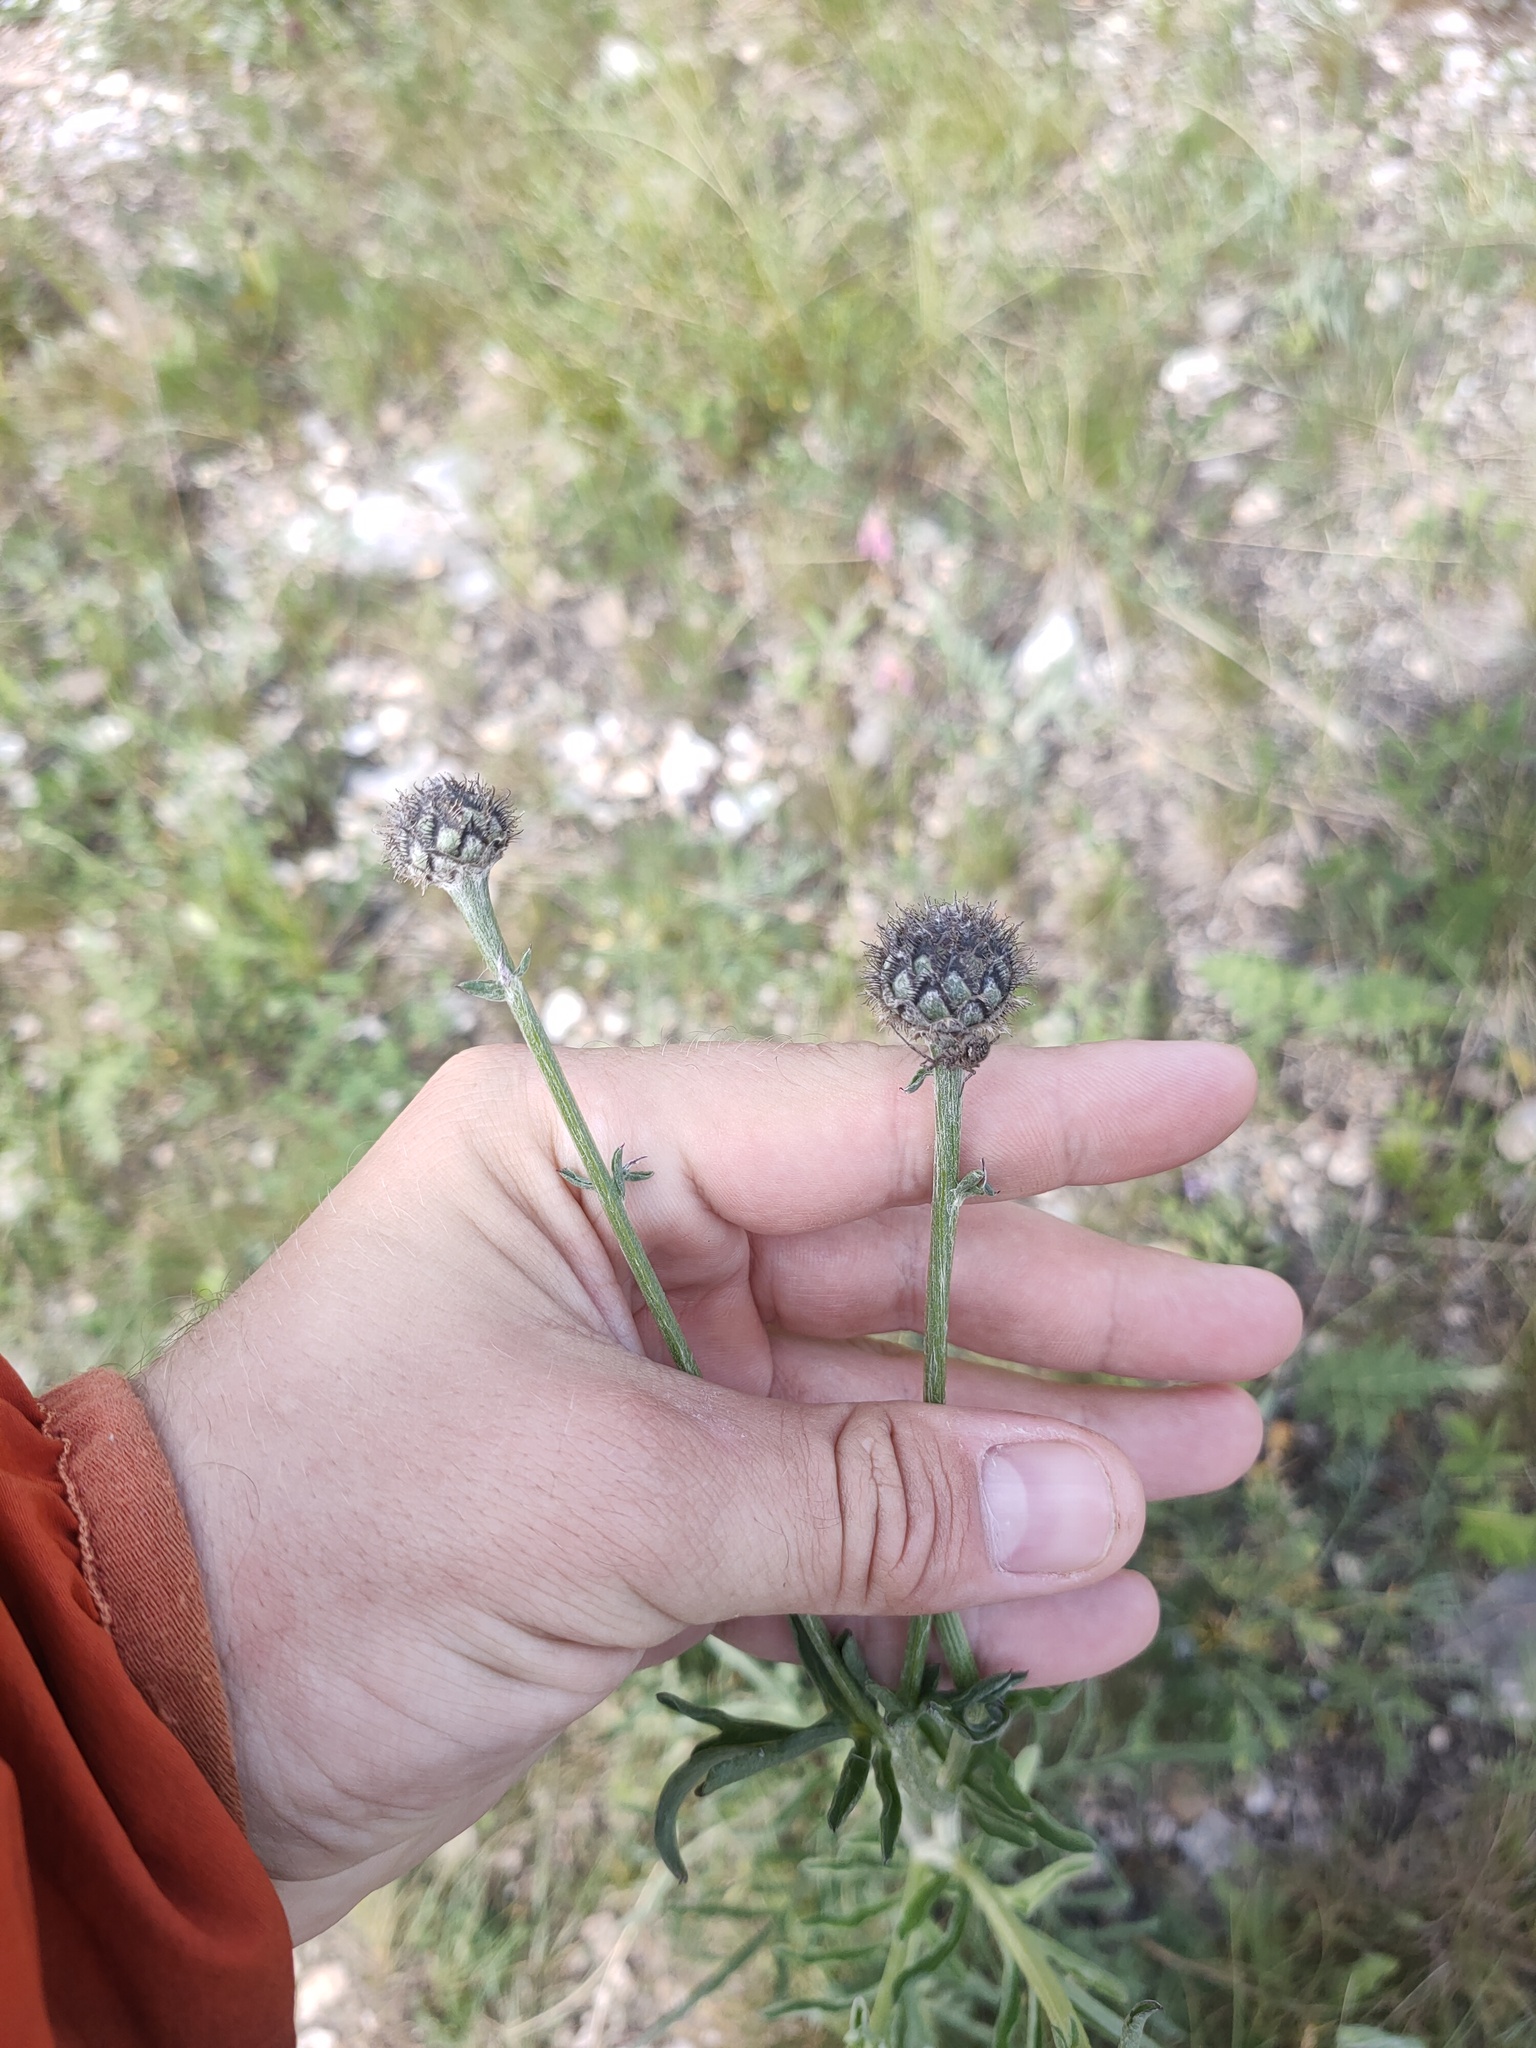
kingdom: Plantae
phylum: Tracheophyta
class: Magnoliopsida
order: Asterales
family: Asteraceae
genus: Centaurea
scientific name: Centaurea scabiosa
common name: Greater knapweed
